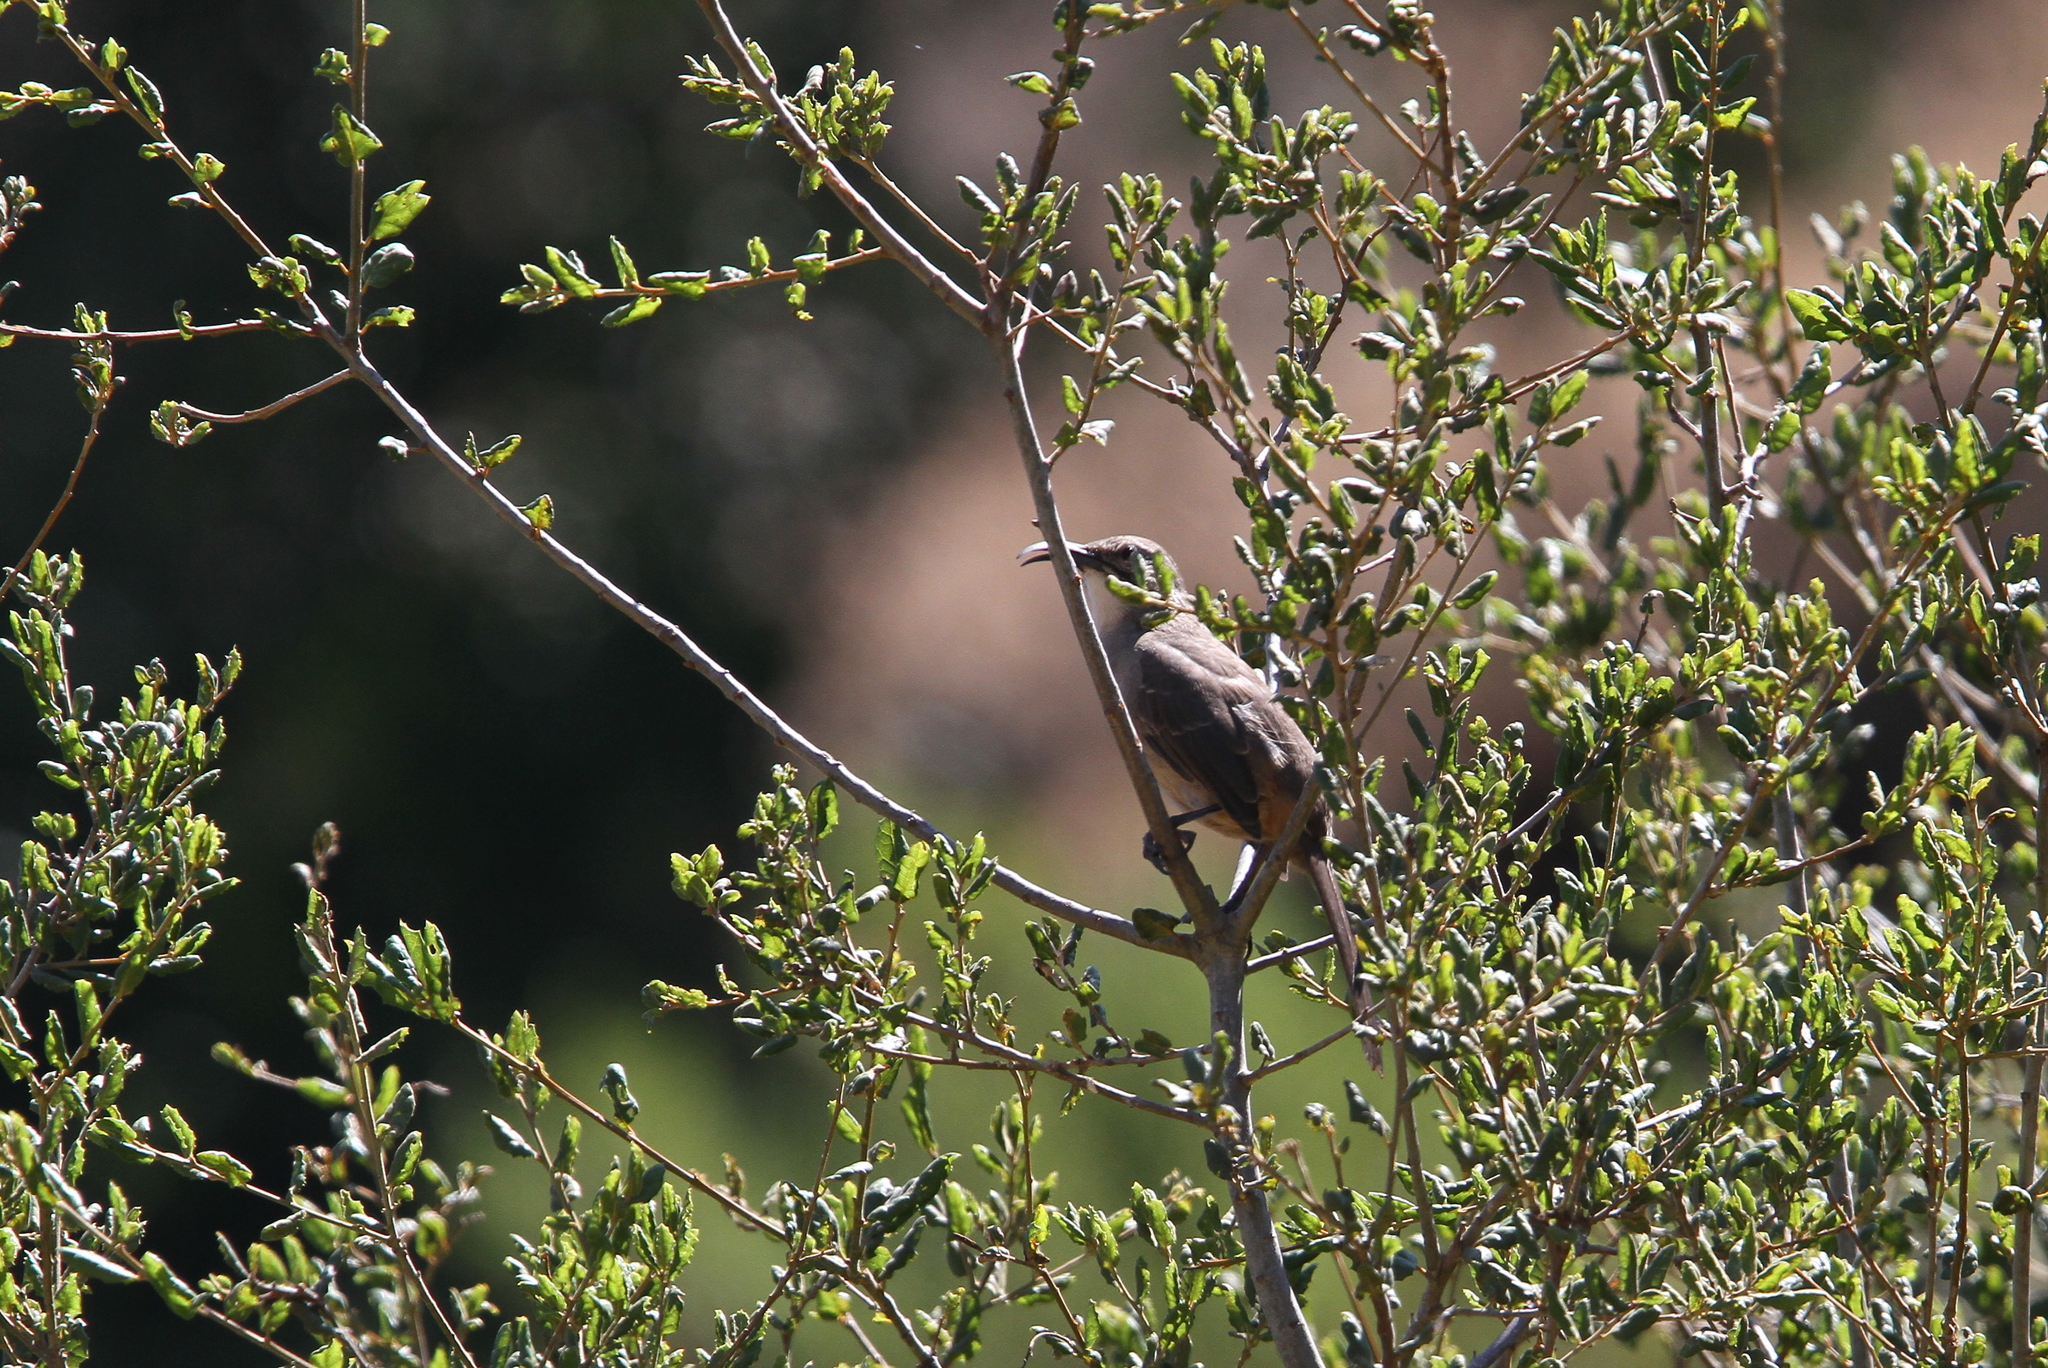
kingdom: Animalia
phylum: Chordata
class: Aves
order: Passeriformes
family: Mimidae
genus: Toxostoma
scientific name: Toxostoma redivivum
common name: California thrasher
